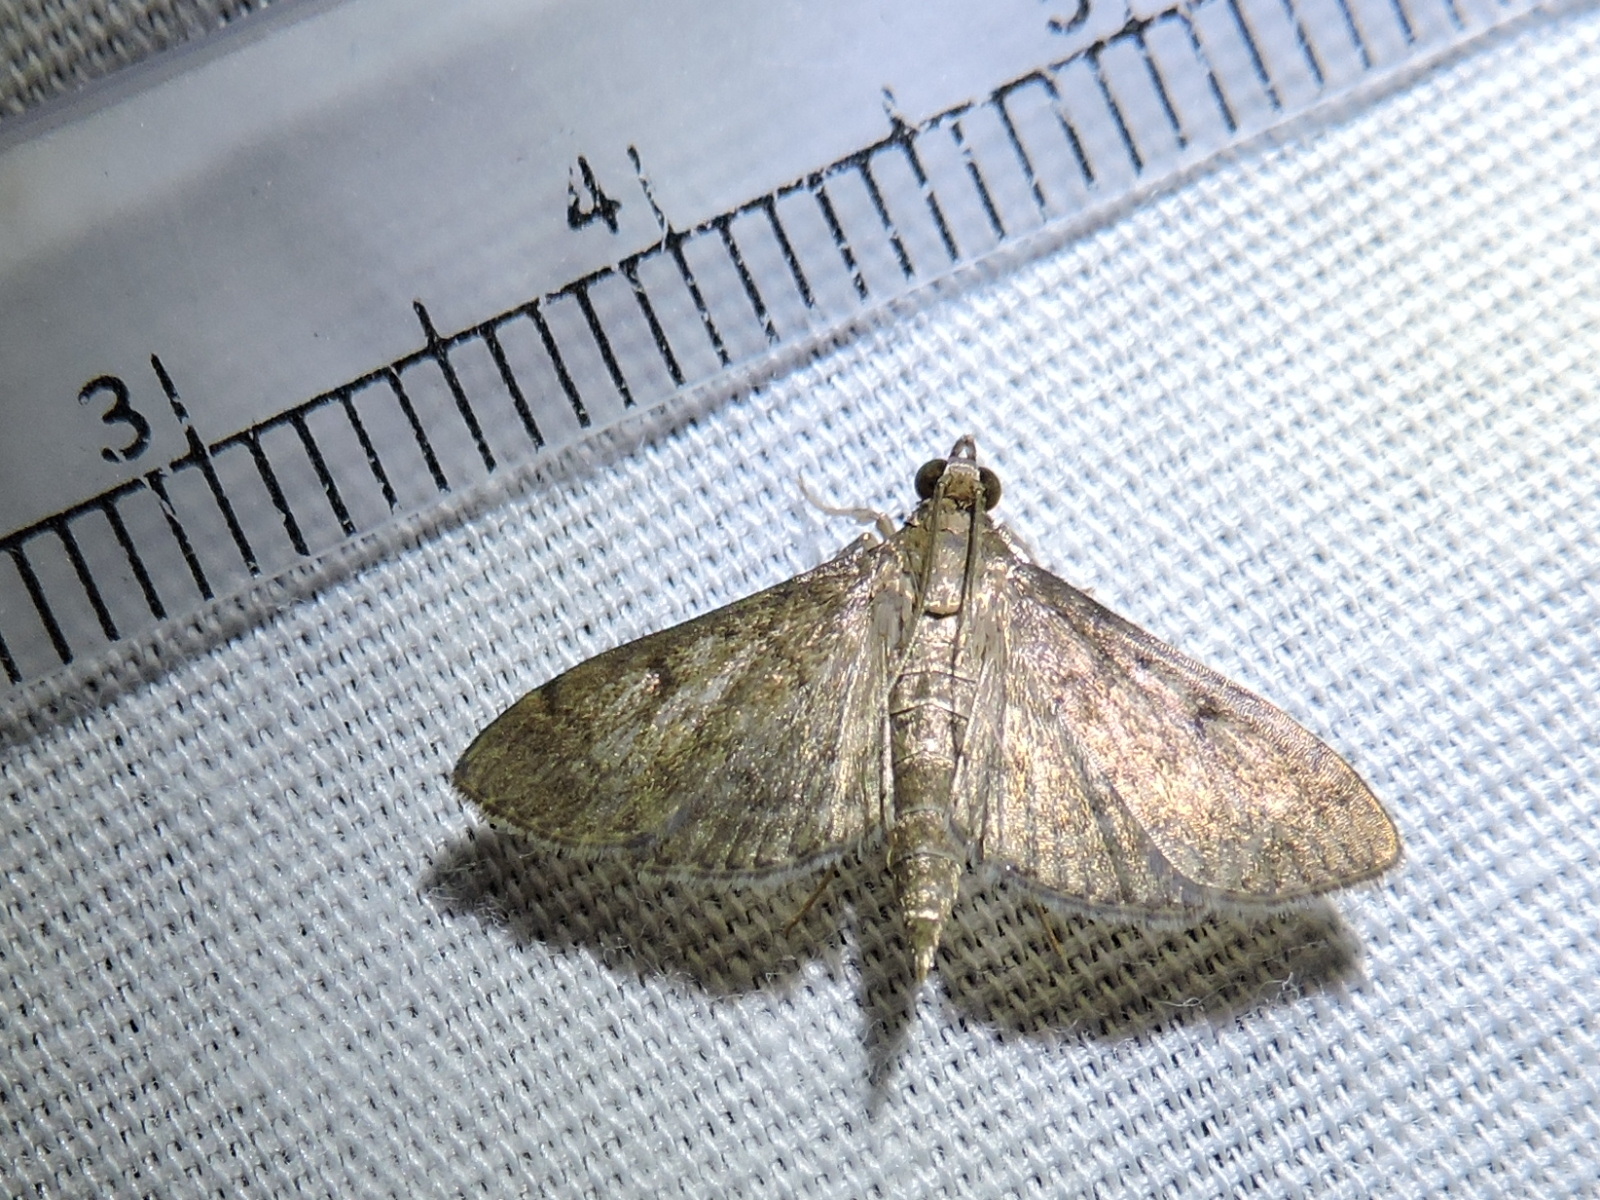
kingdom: Animalia
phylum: Arthropoda
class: Insecta
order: Lepidoptera
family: Crambidae
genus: Herpetogramma
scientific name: Herpetogramma phaeopteralis
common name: Dusky herpetogramma moth
